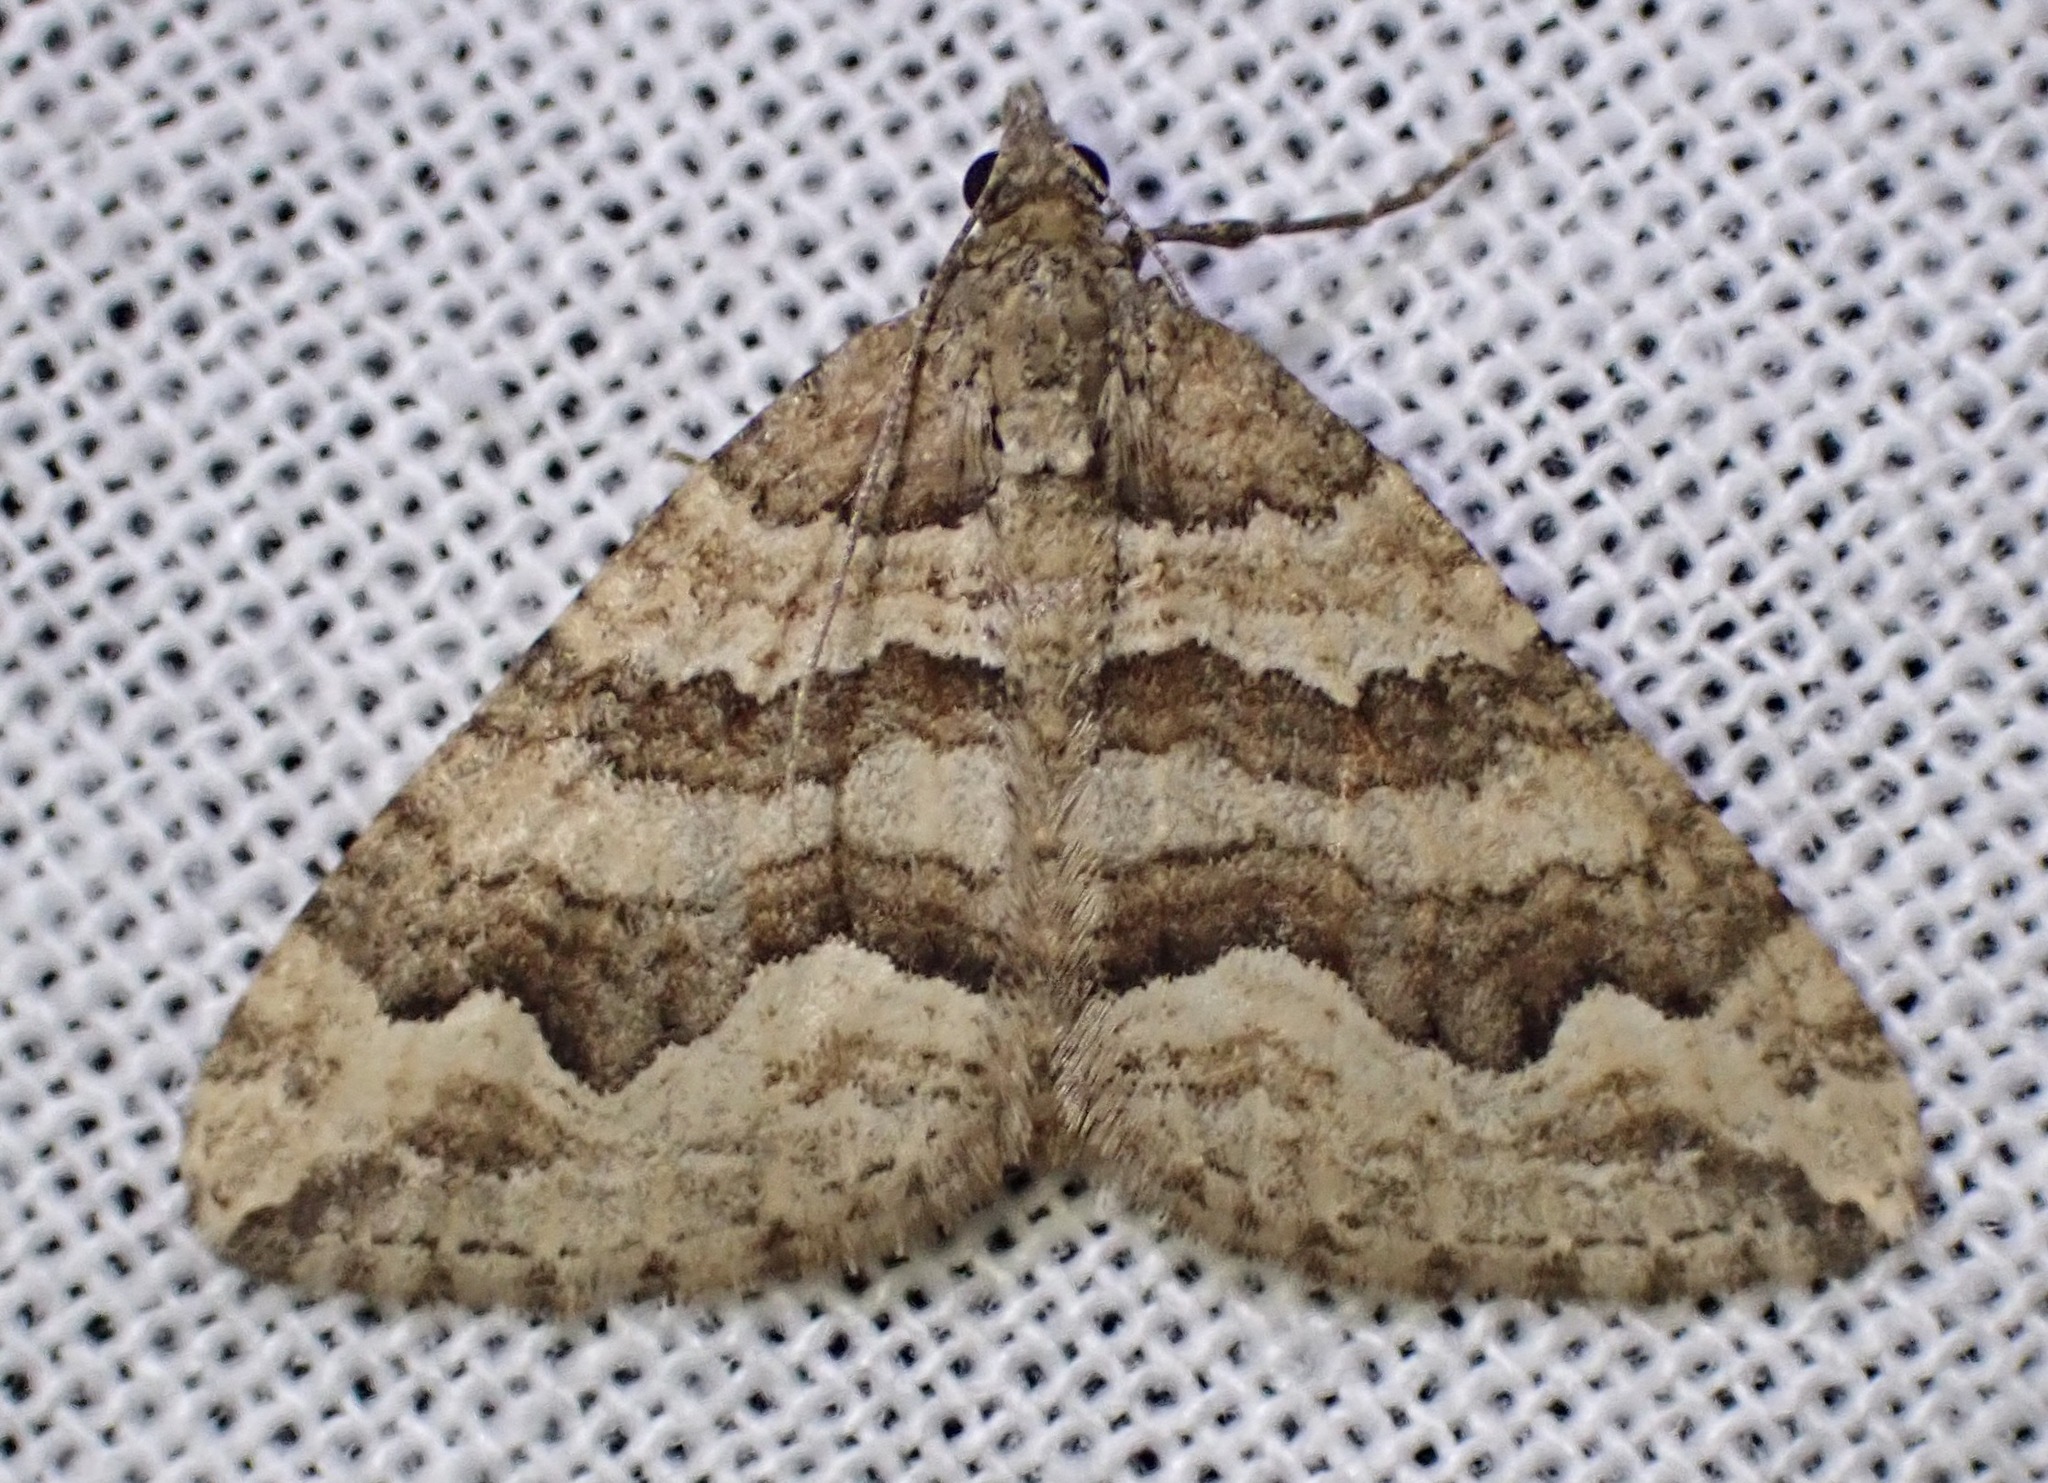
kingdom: Animalia
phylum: Arthropoda
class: Insecta
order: Lepidoptera
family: Geometridae
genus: Perizoma
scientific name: Perizoma epictata
